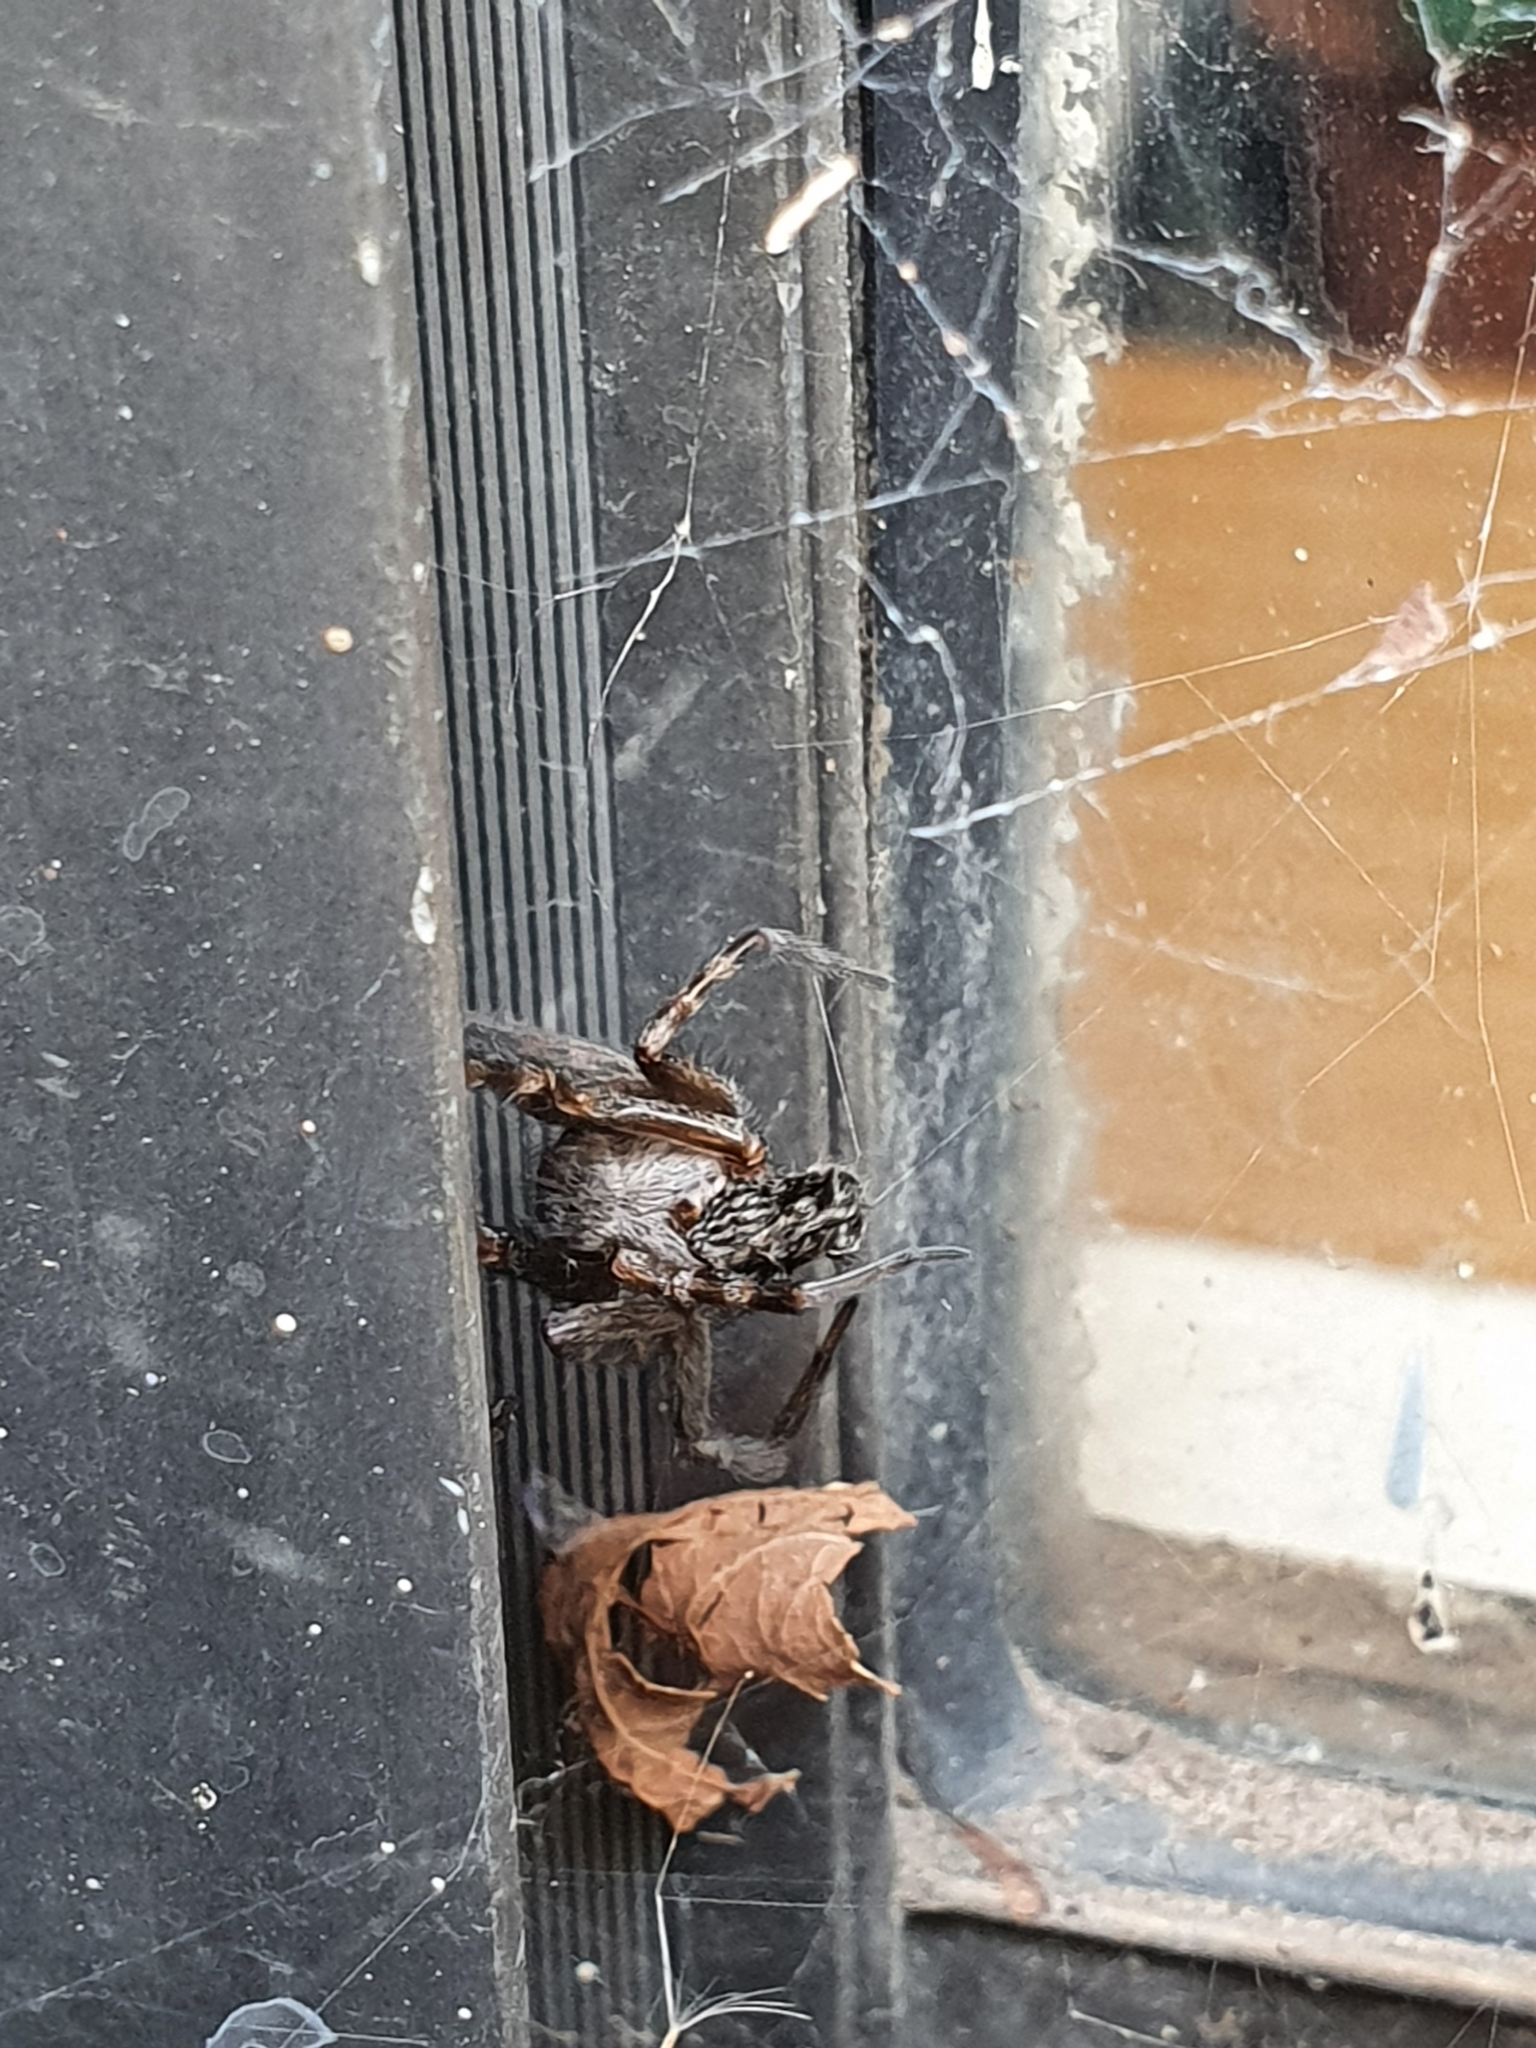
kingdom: Animalia
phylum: Arthropoda
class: Arachnida
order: Araneae
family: Desidae
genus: Badumna
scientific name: Badumna longinqua
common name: Gray house spider
